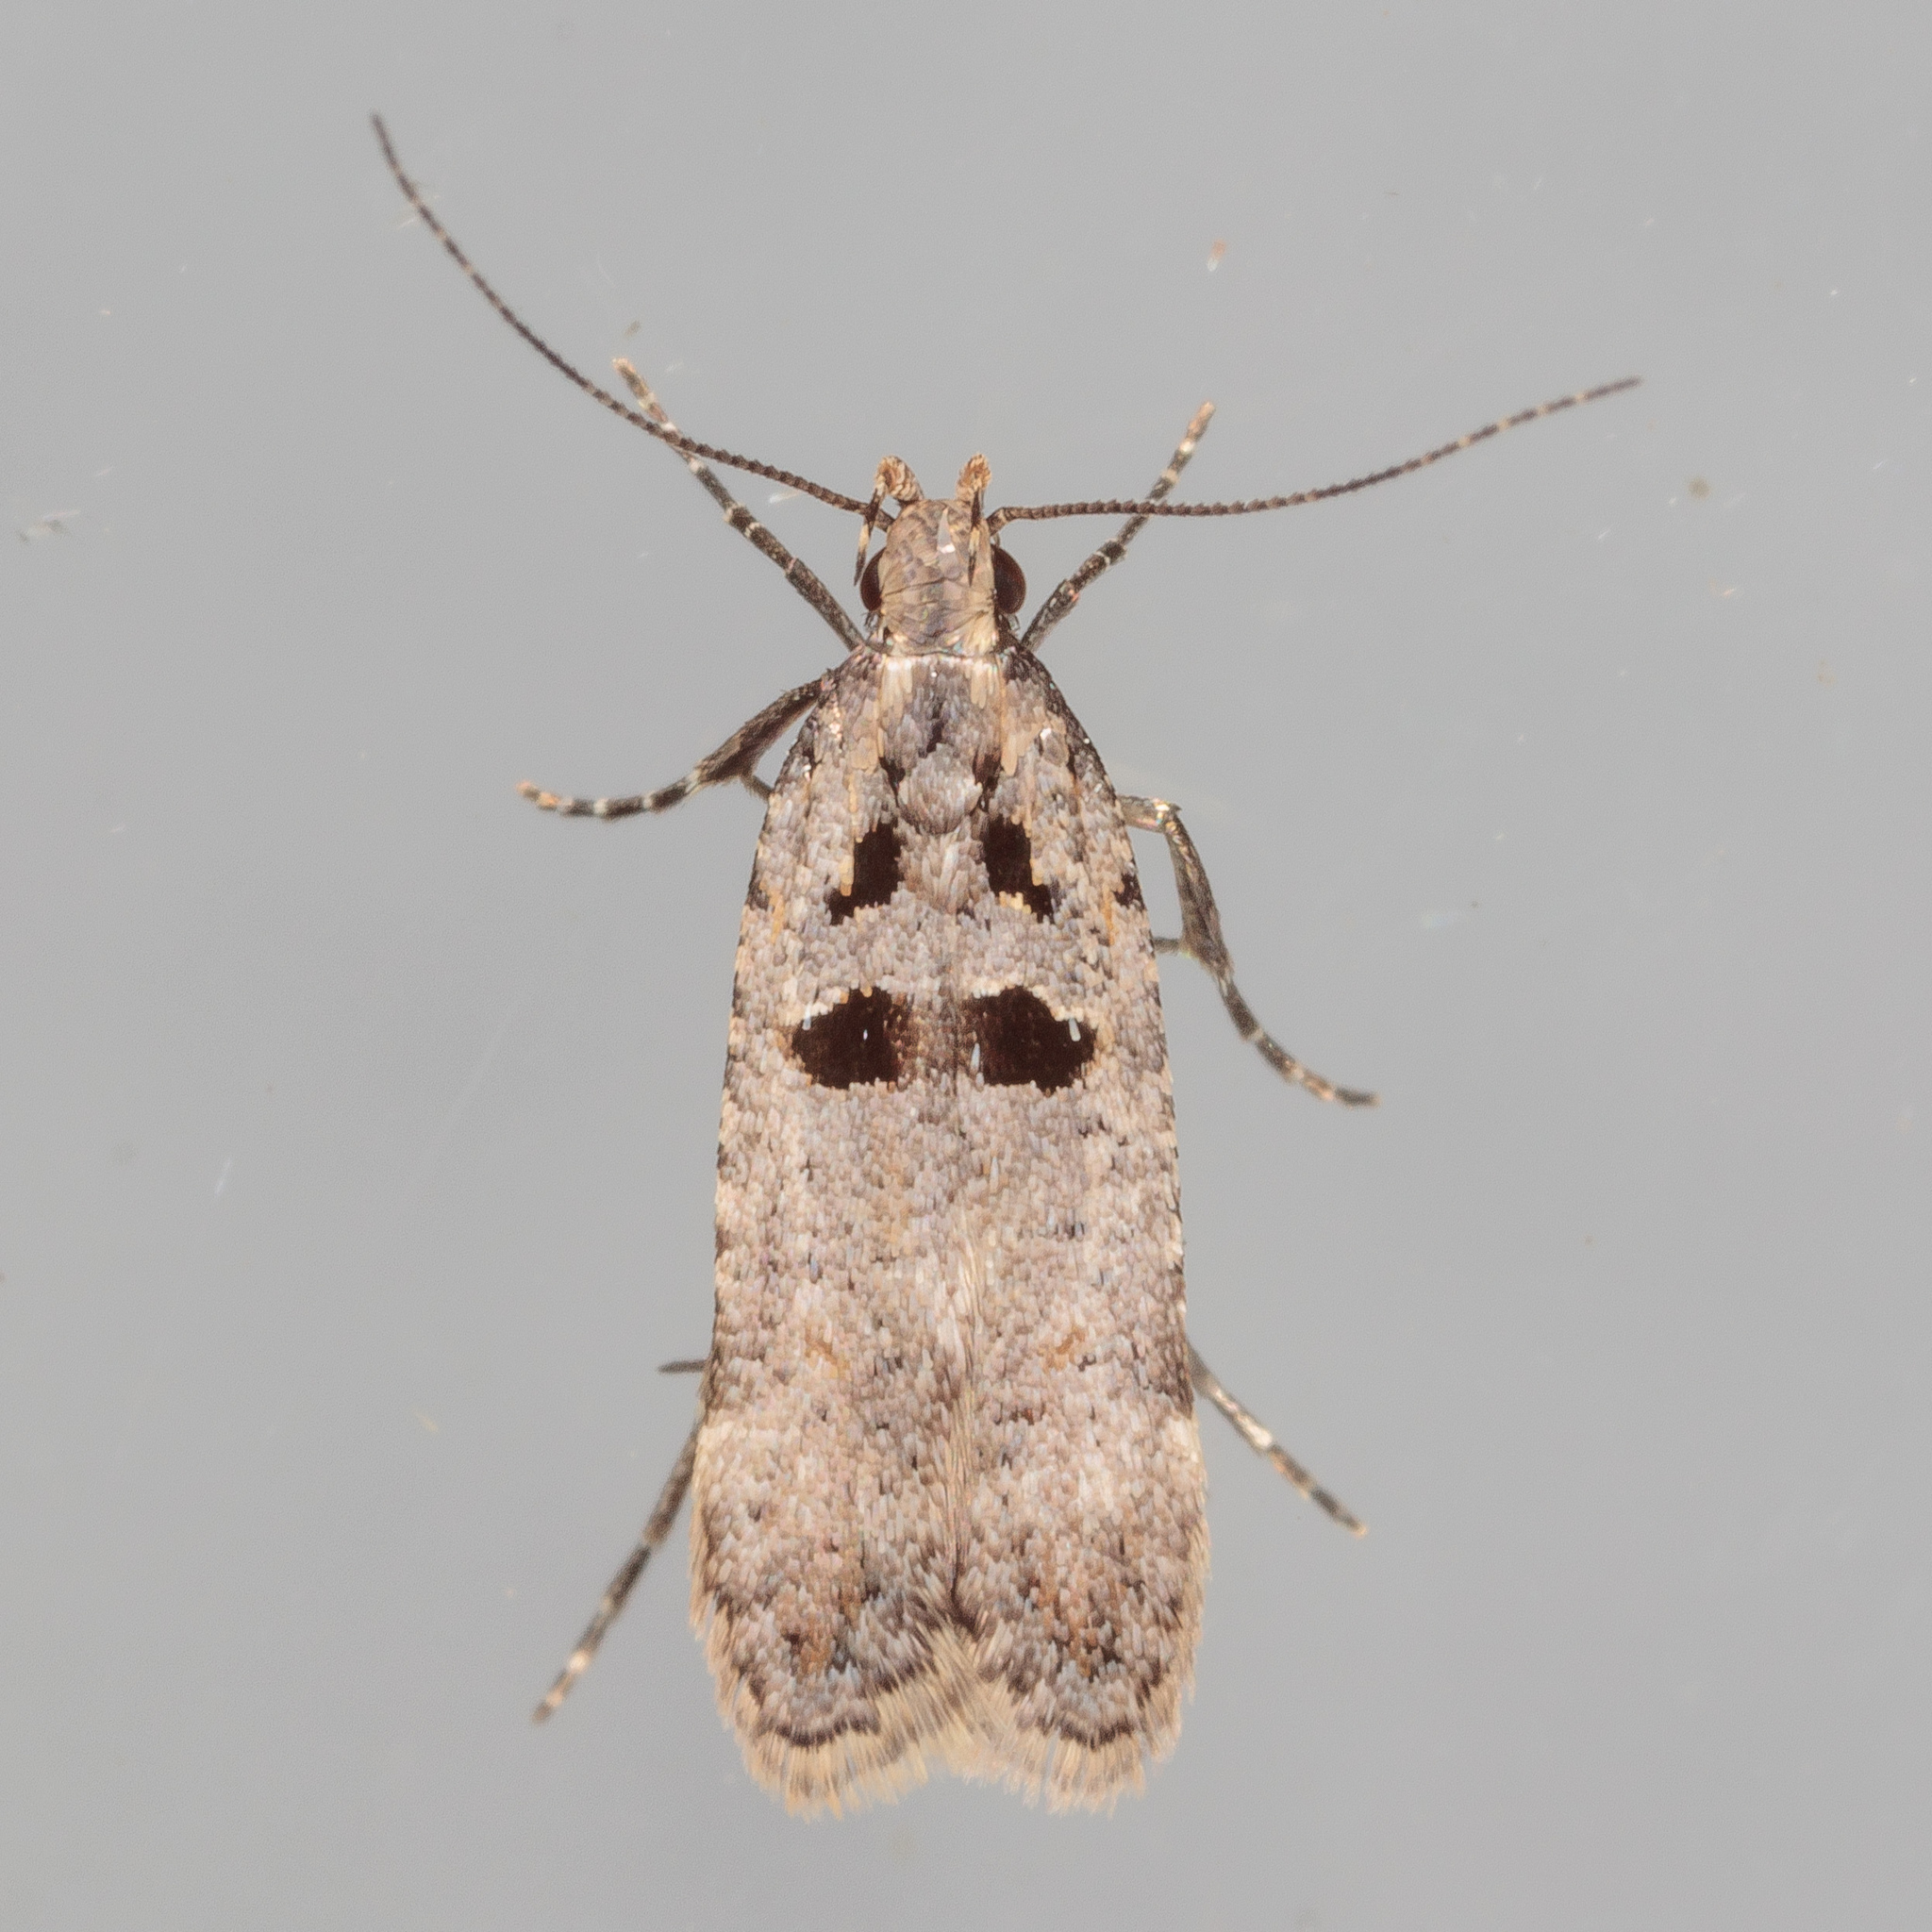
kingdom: Animalia
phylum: Arthropoda
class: Insecta
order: Lepidoptera
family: Gelechiidae
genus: Deltophora
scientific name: Deltophora glandiferella
